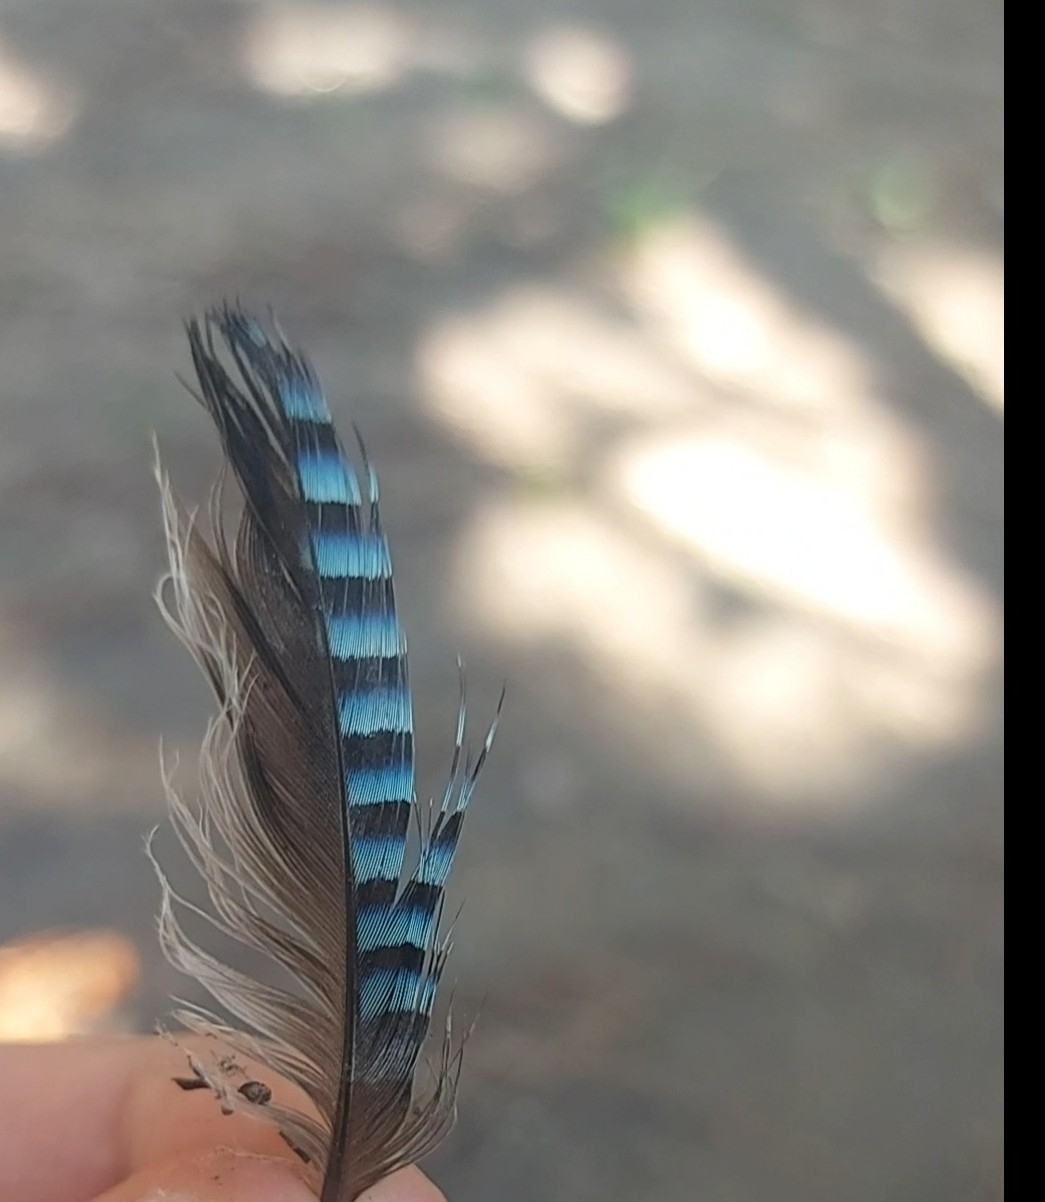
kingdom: Animalia
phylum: Chordata
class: Aves
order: Passeriformes
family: Corvidae
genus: Garrulus
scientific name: Garrulus glandarius
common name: Eurasian jay
